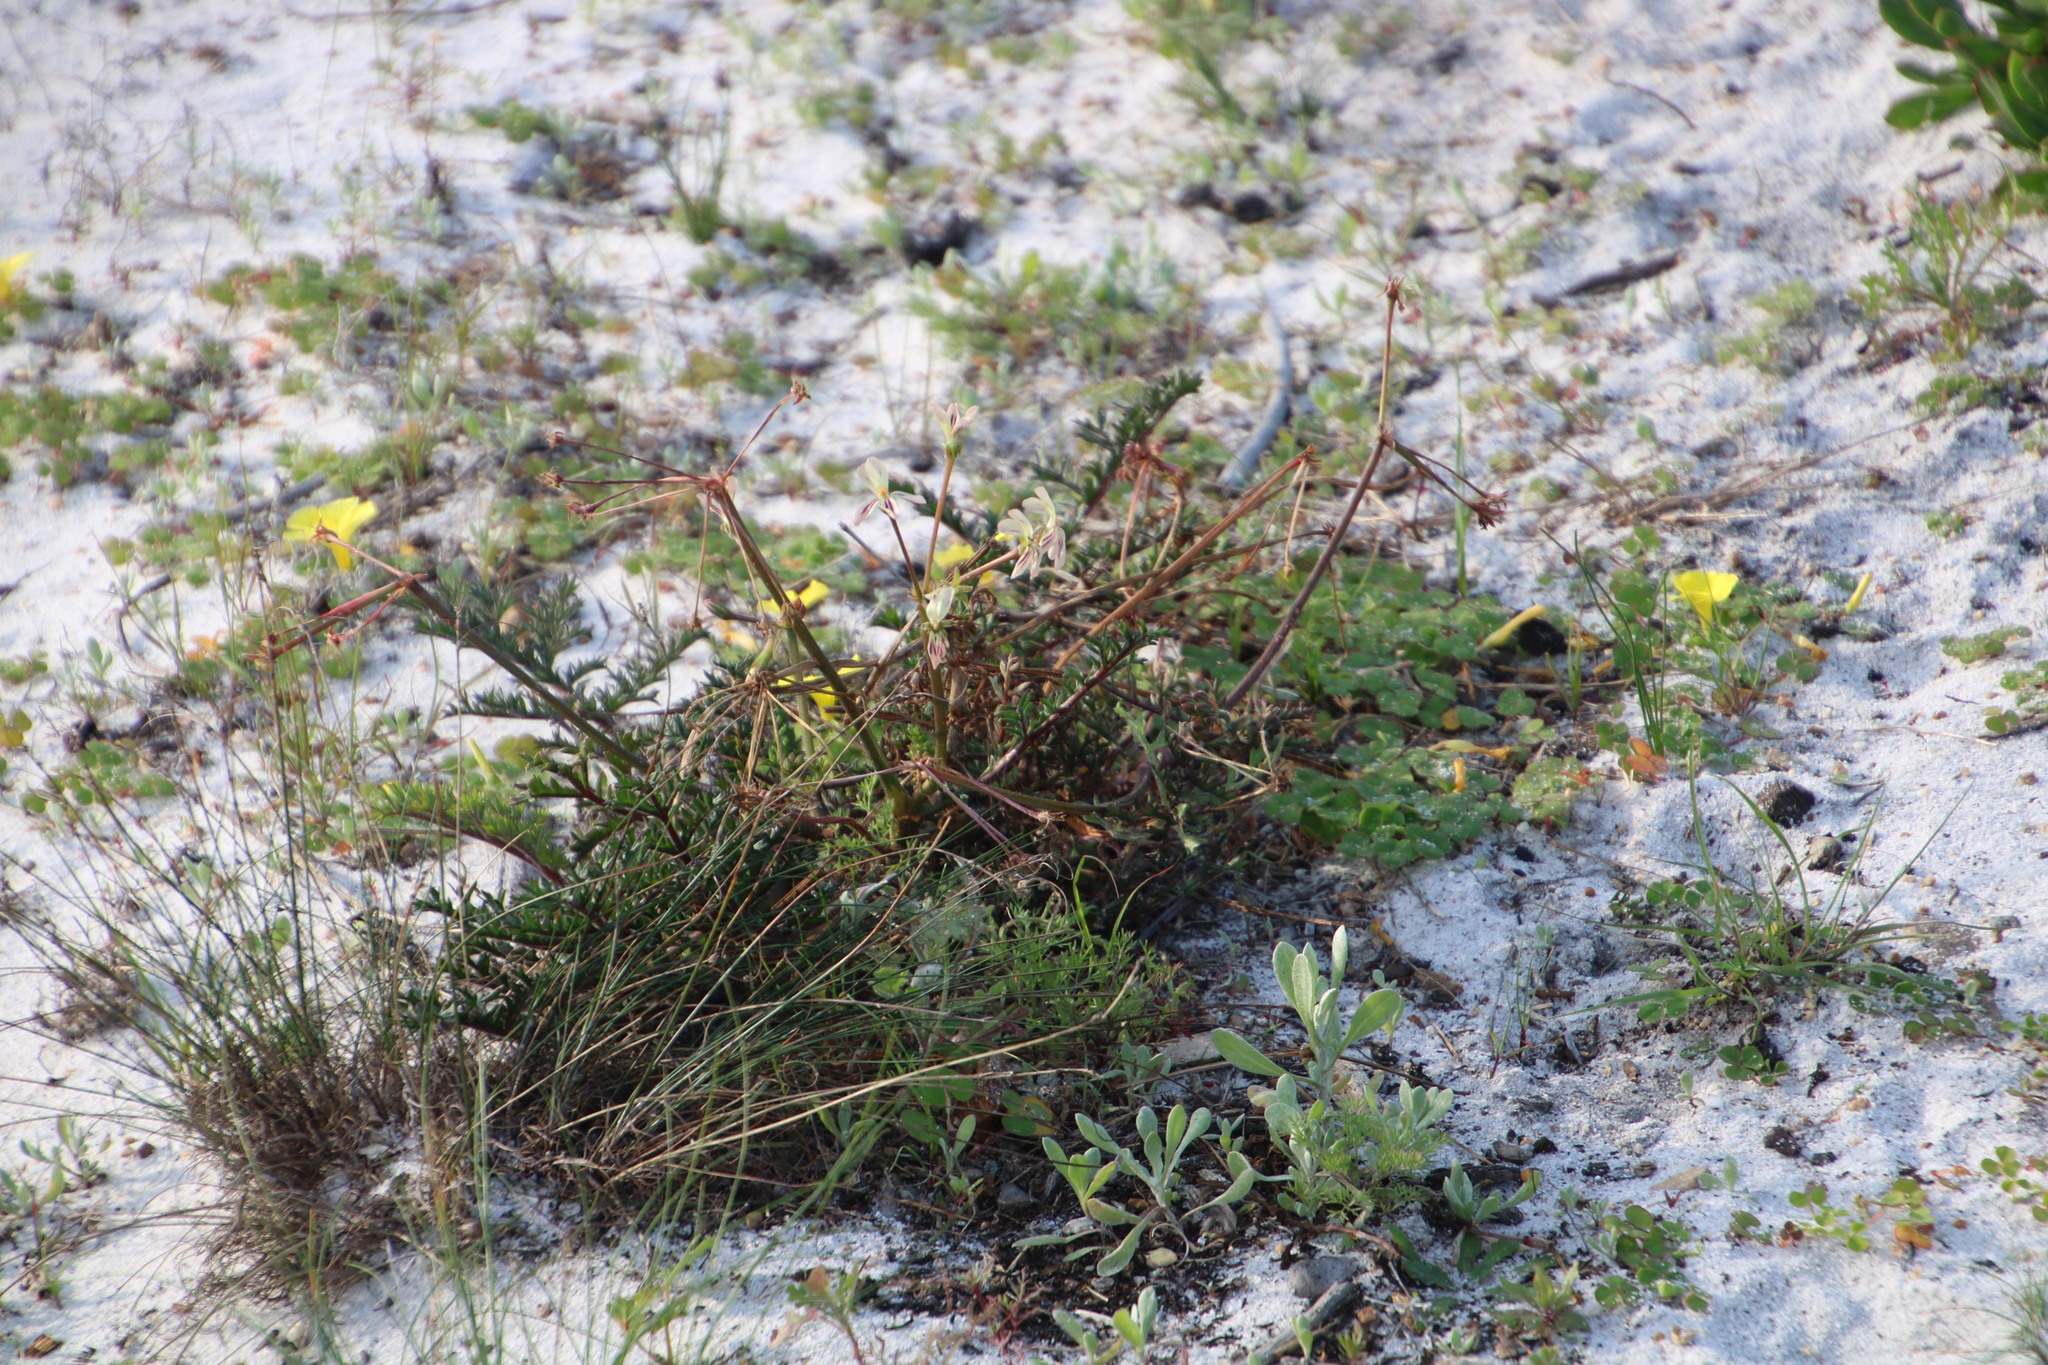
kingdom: Plantae
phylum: Tracheophyta
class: Magnoliopsida
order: Geraniales
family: Geraniaceae
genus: Pelargonium
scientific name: Pelargonium triste
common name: Night-scent pelargonium
